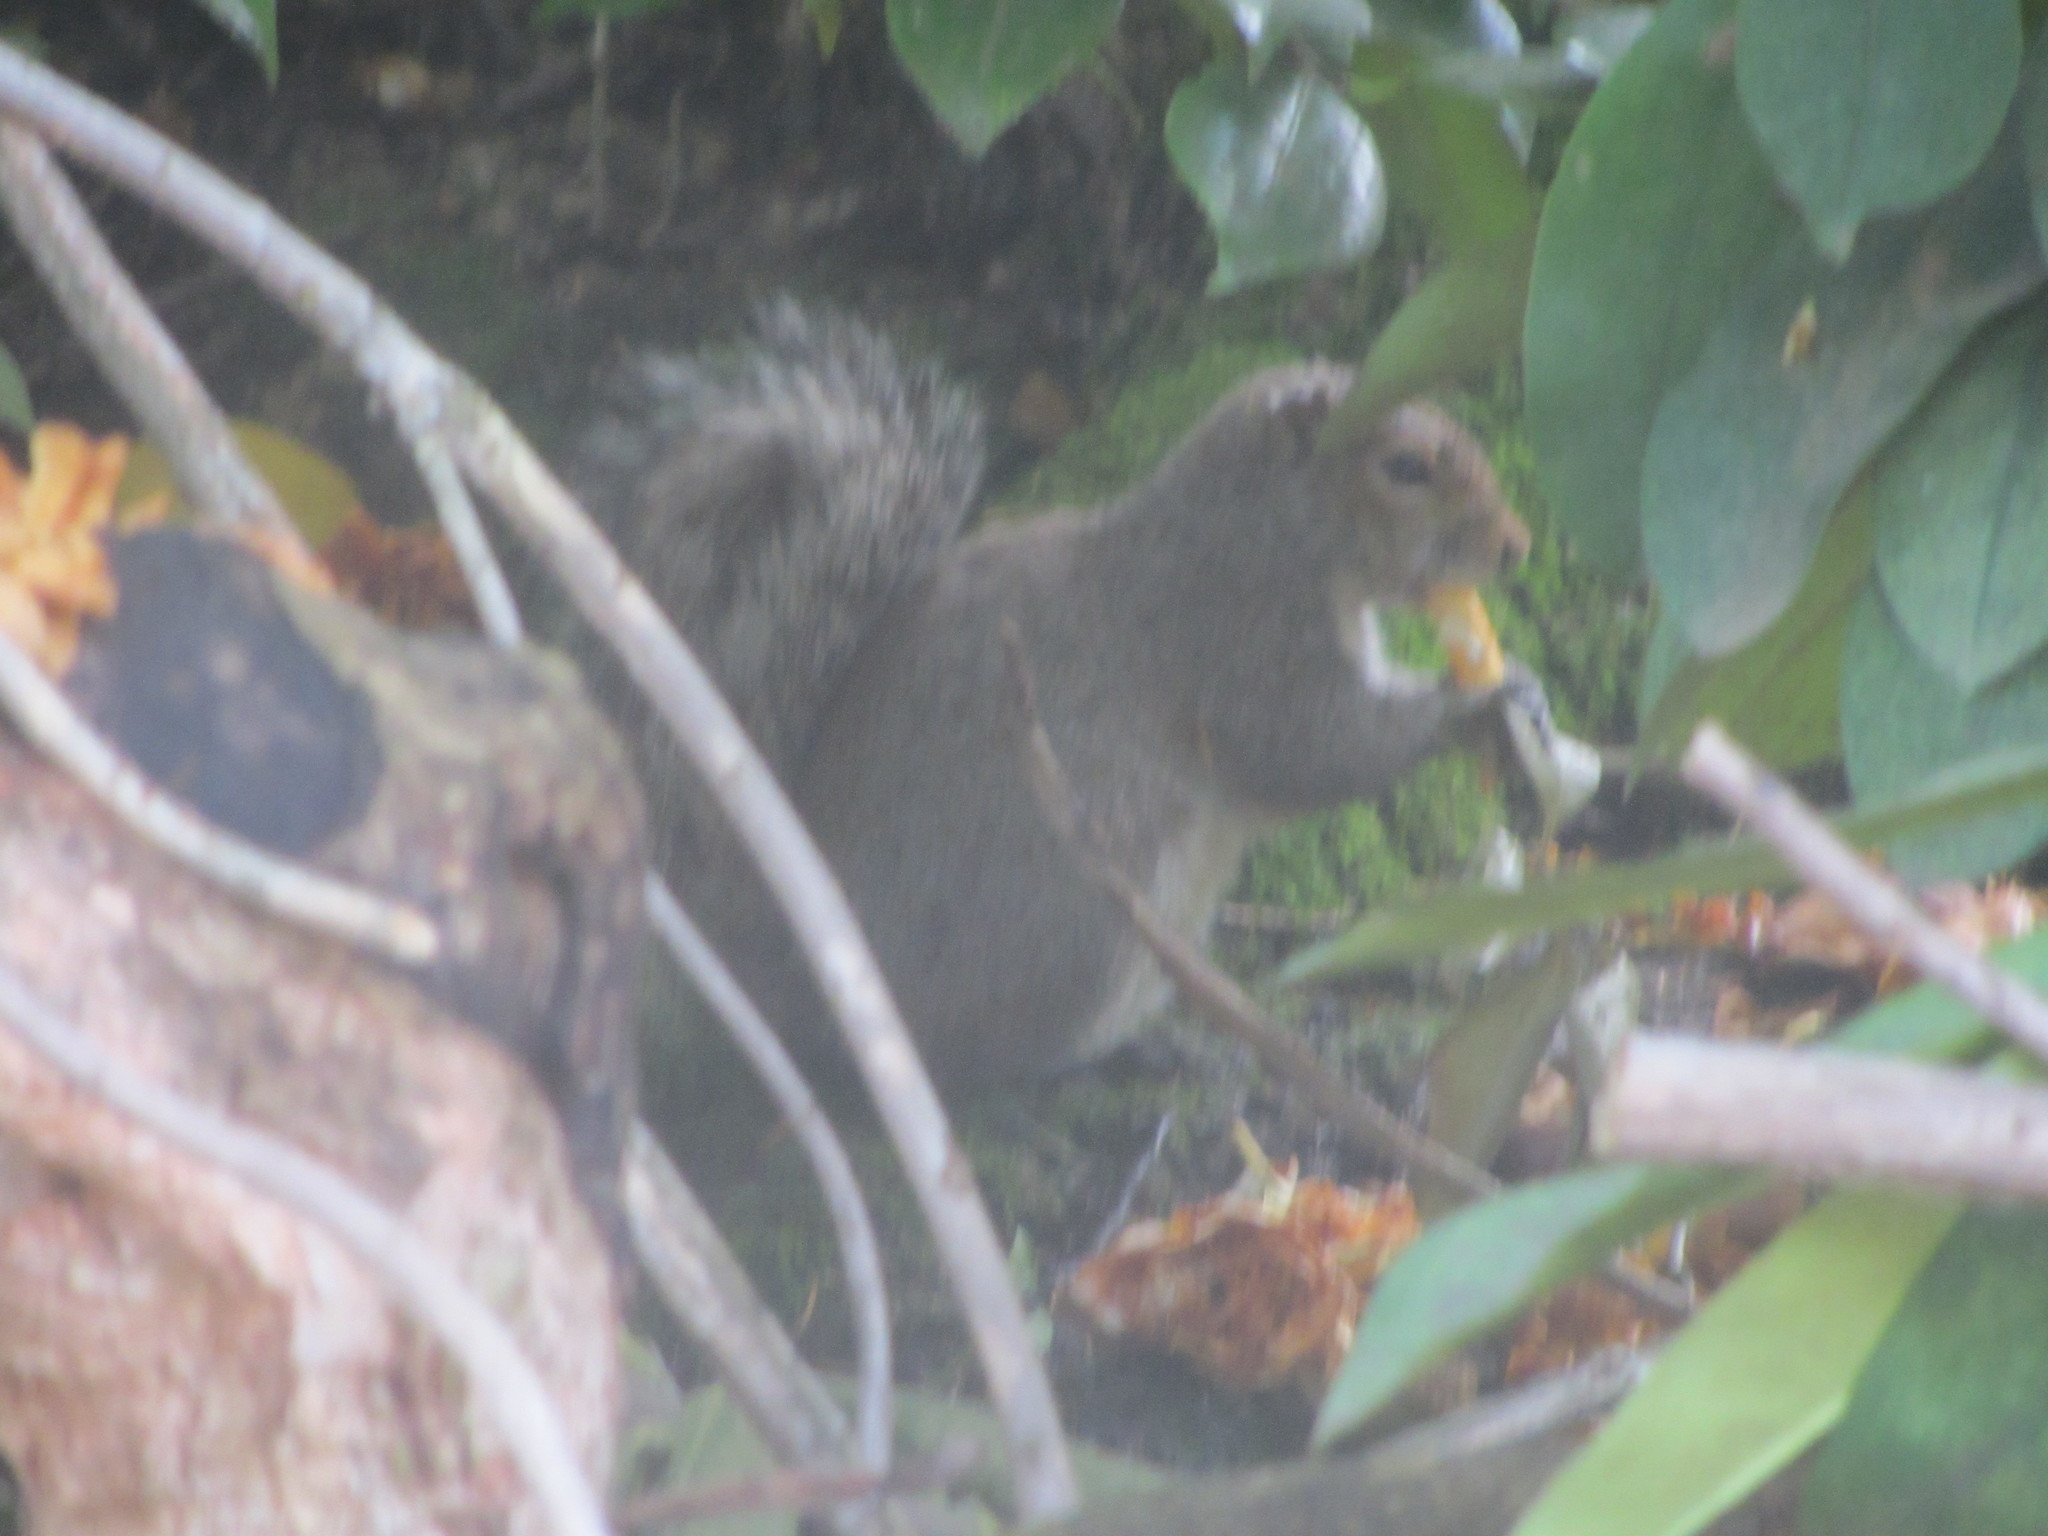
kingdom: Animalia
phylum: Chordata
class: Mammalia
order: Rodentia
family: Sciuridae
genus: Sciurus
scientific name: Sciurus carolinensis
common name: Eastern gray squirrel
